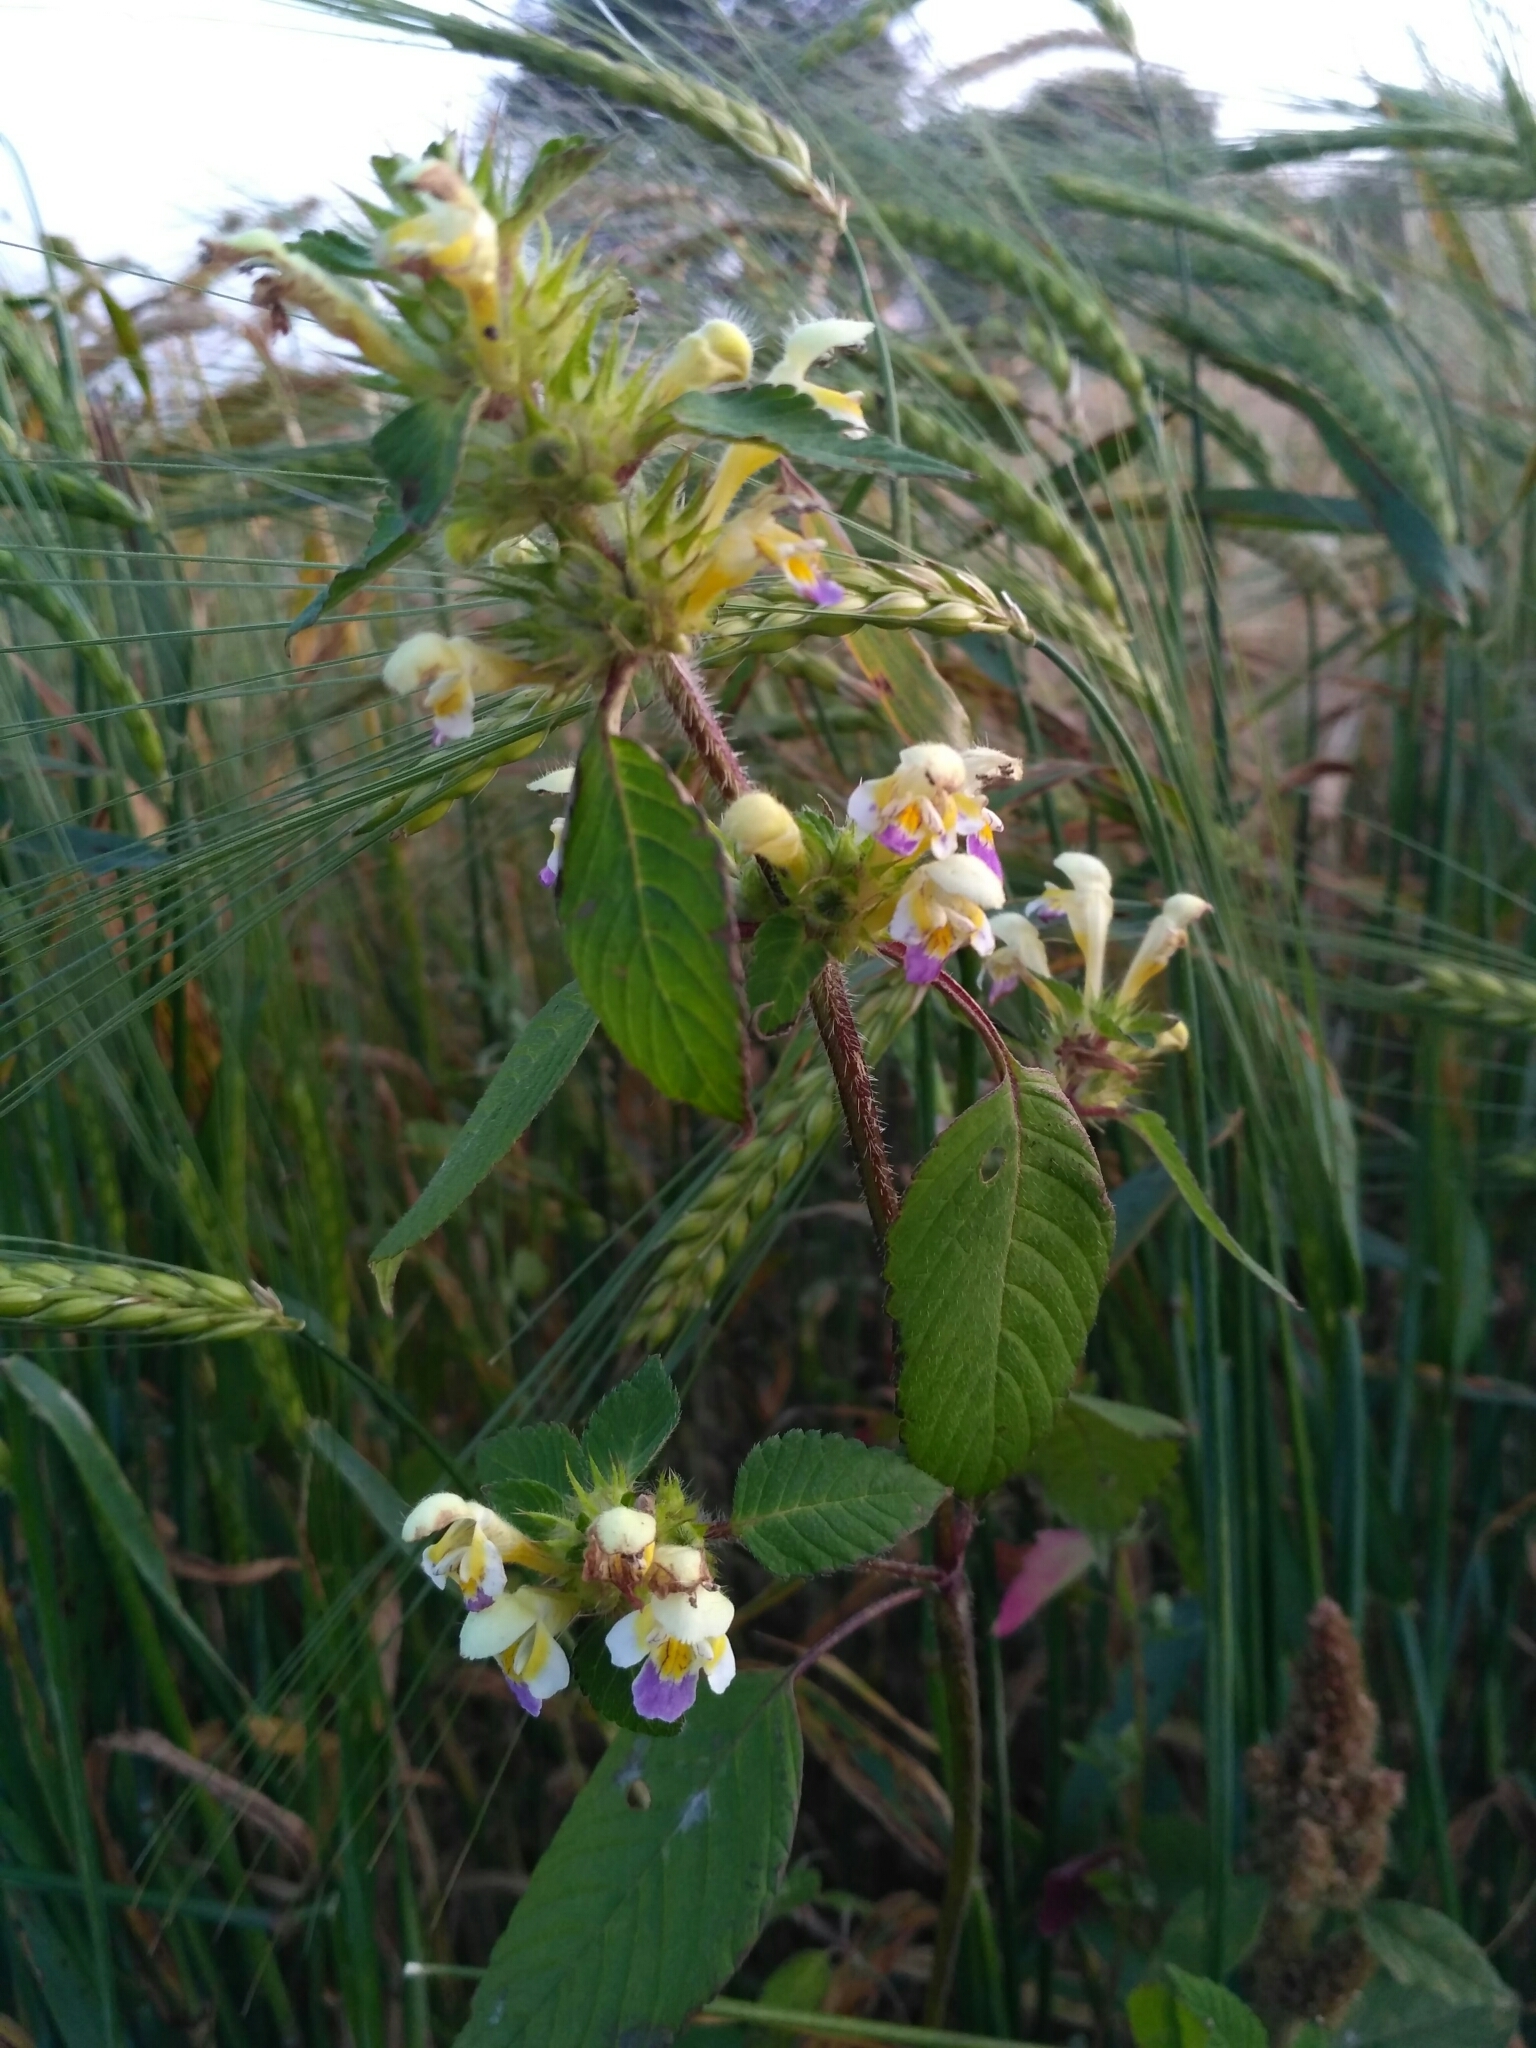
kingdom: Plantae
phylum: Tracheophyta
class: Magnoliopsida
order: Lamiales
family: Lamiaceae
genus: Galeopsis
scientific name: Galeopsis speciosa
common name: Large-flowered hemp-nettle
